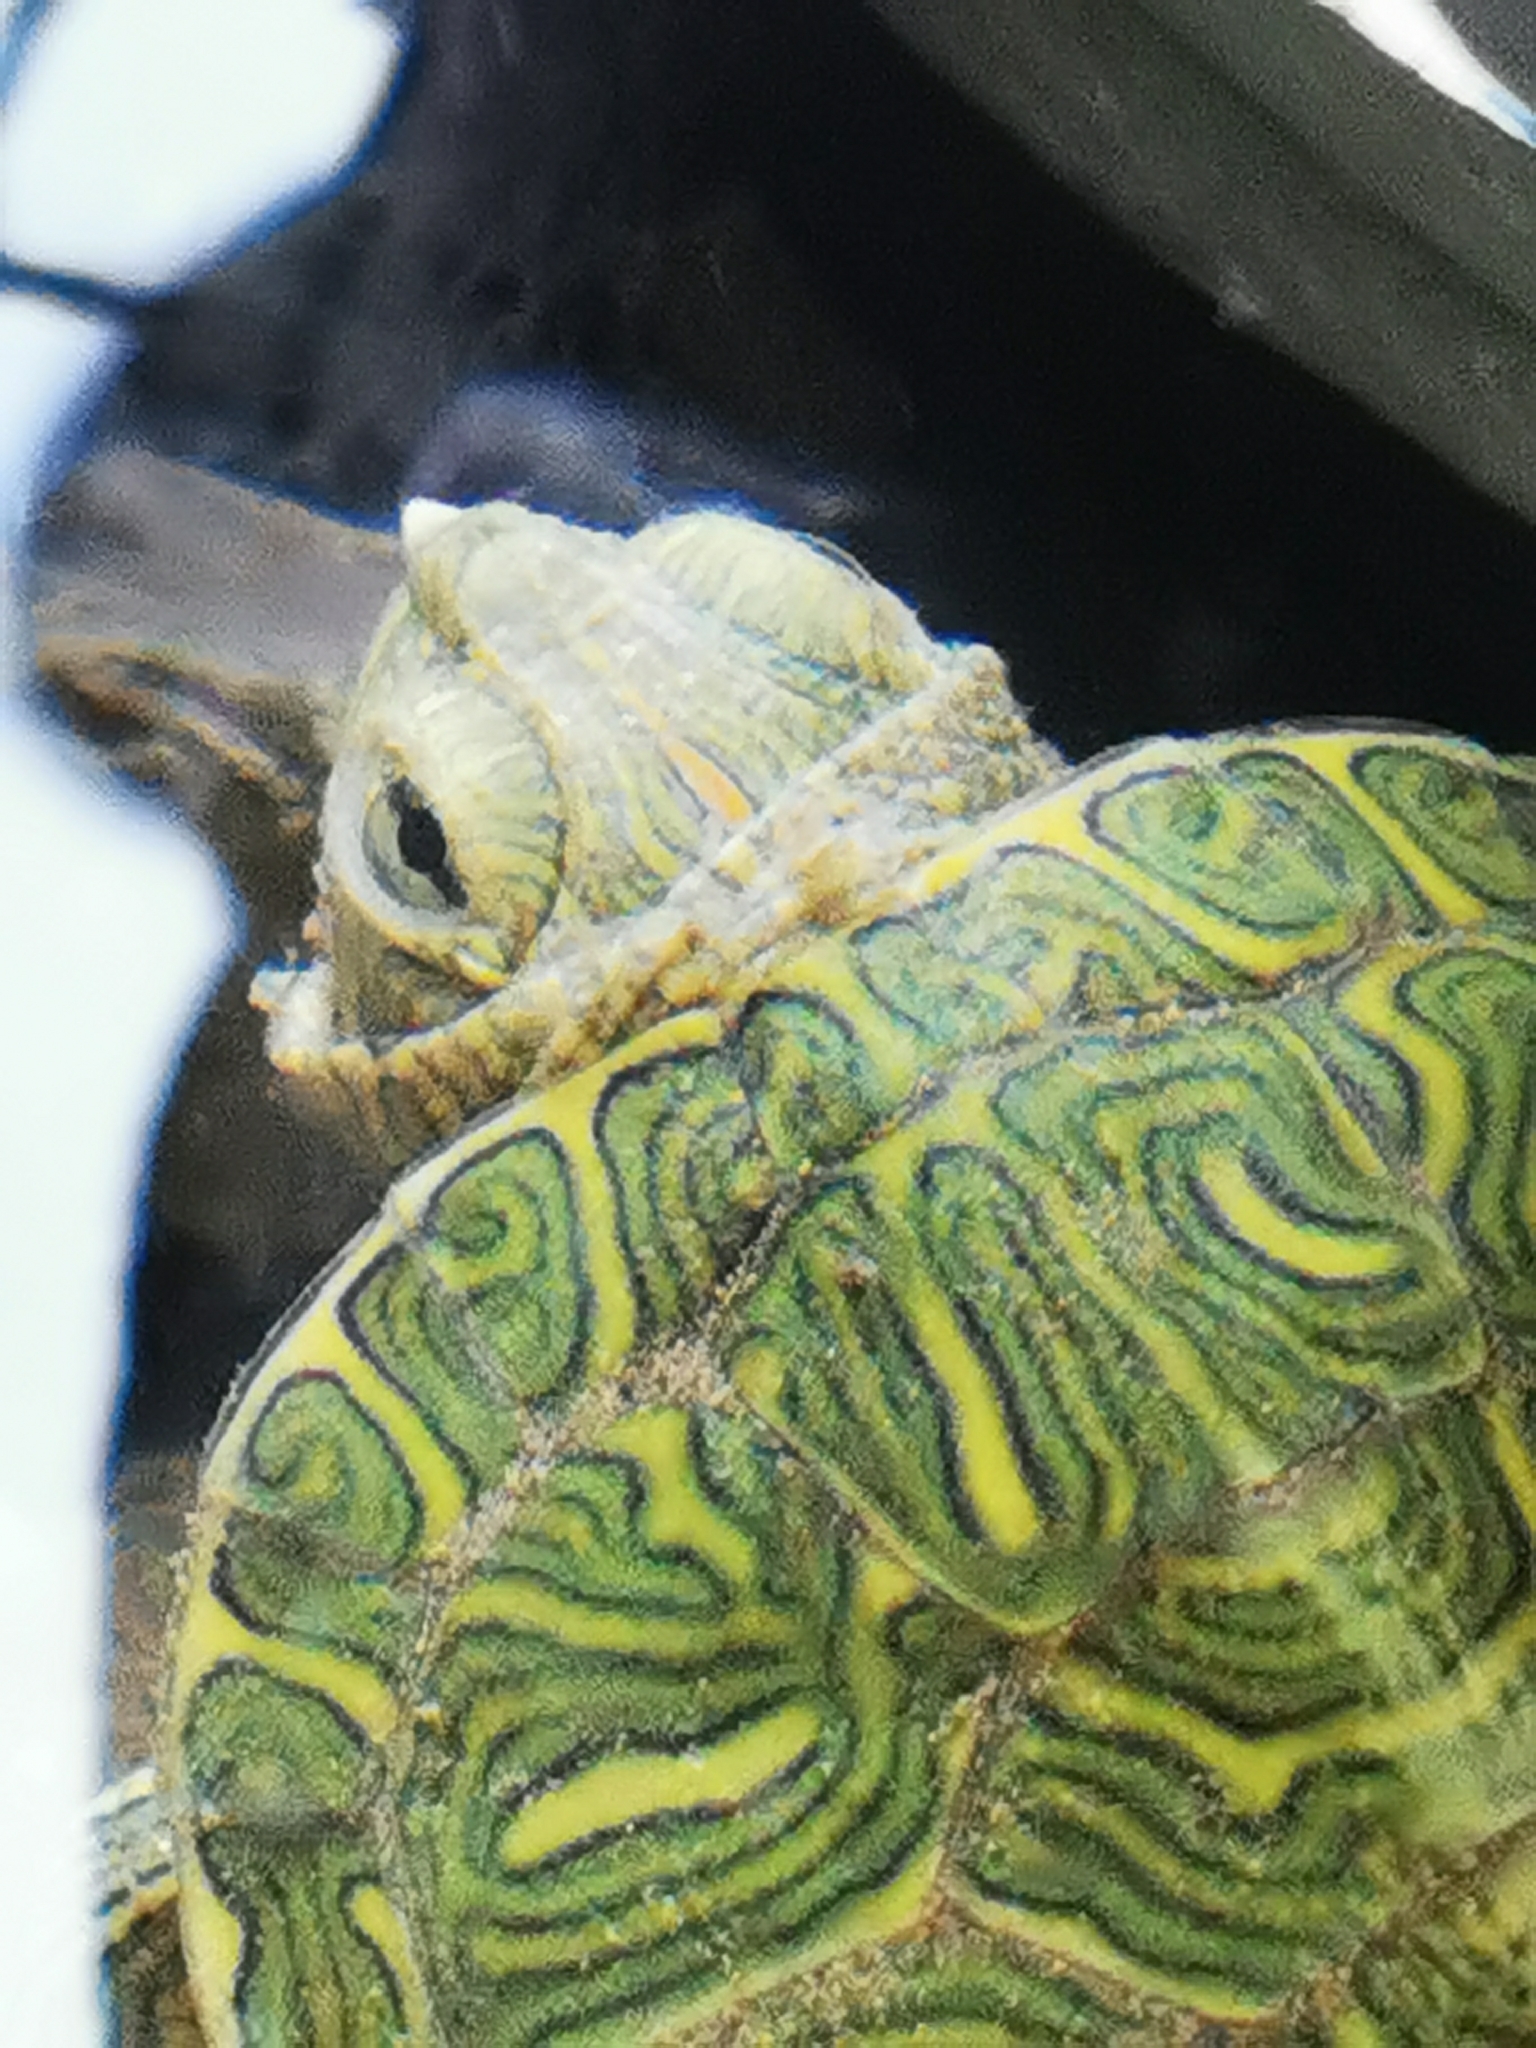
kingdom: Animalia
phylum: Chordata
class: Testudines
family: Emydidae
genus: Trachemys
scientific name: Trachemys scripta
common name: Slider
